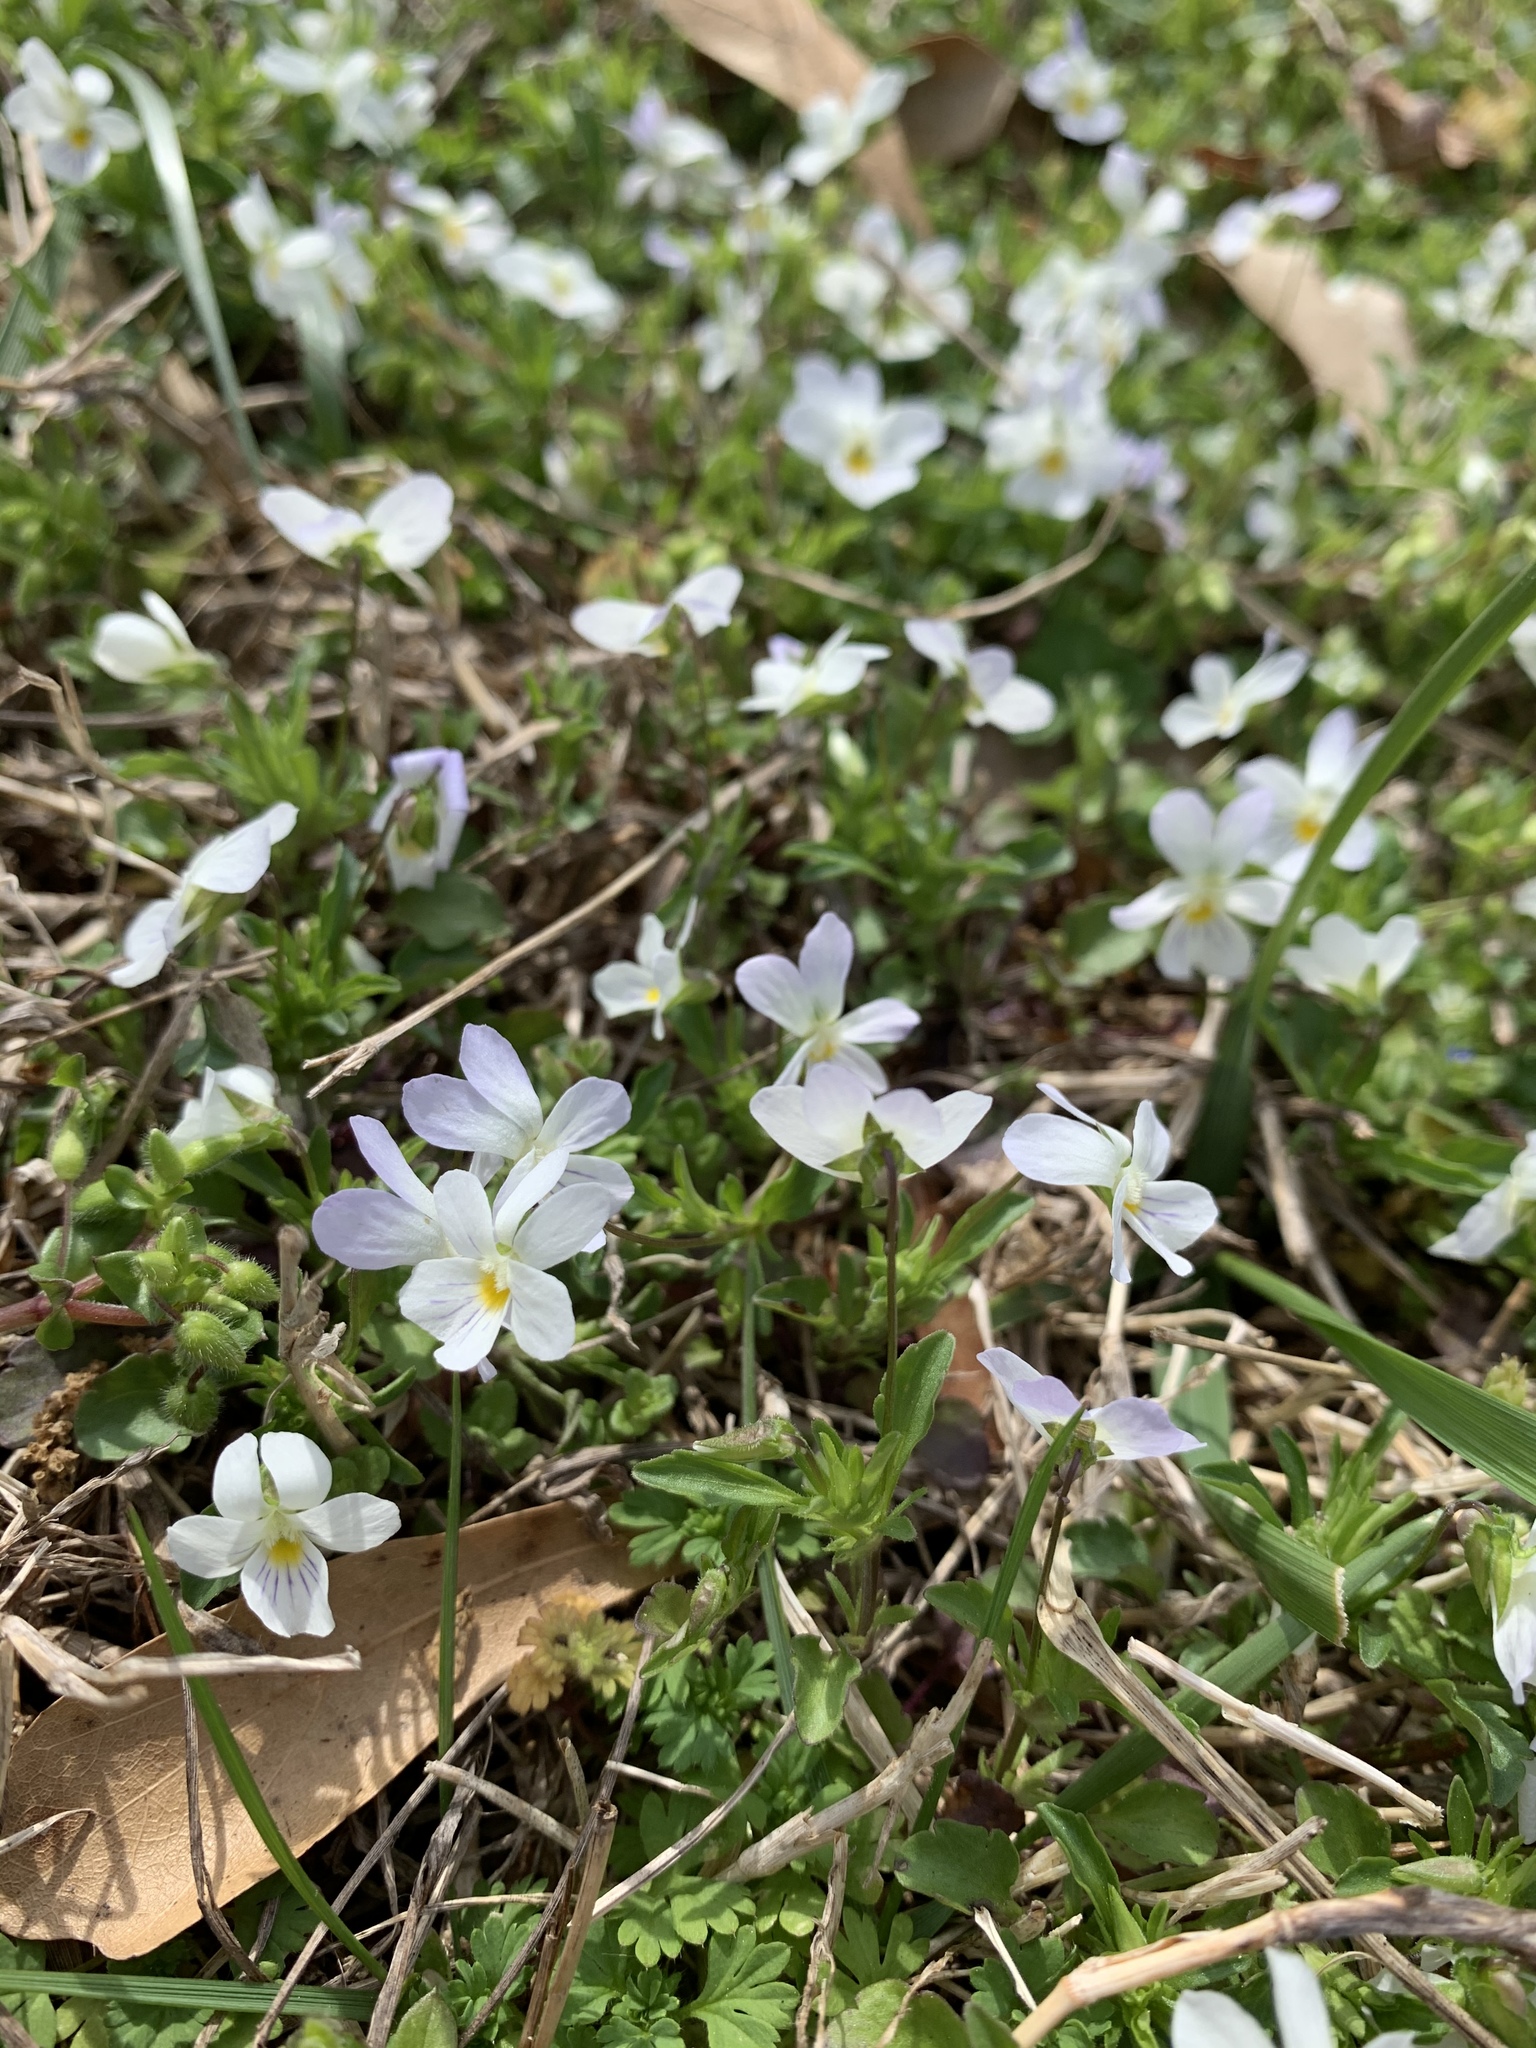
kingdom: Plantae
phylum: Tracheophyta
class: Magnoliopsida
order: Malpighiales
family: Violaceae
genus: Viola
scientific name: Viola rafinesquei
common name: American field pansy
